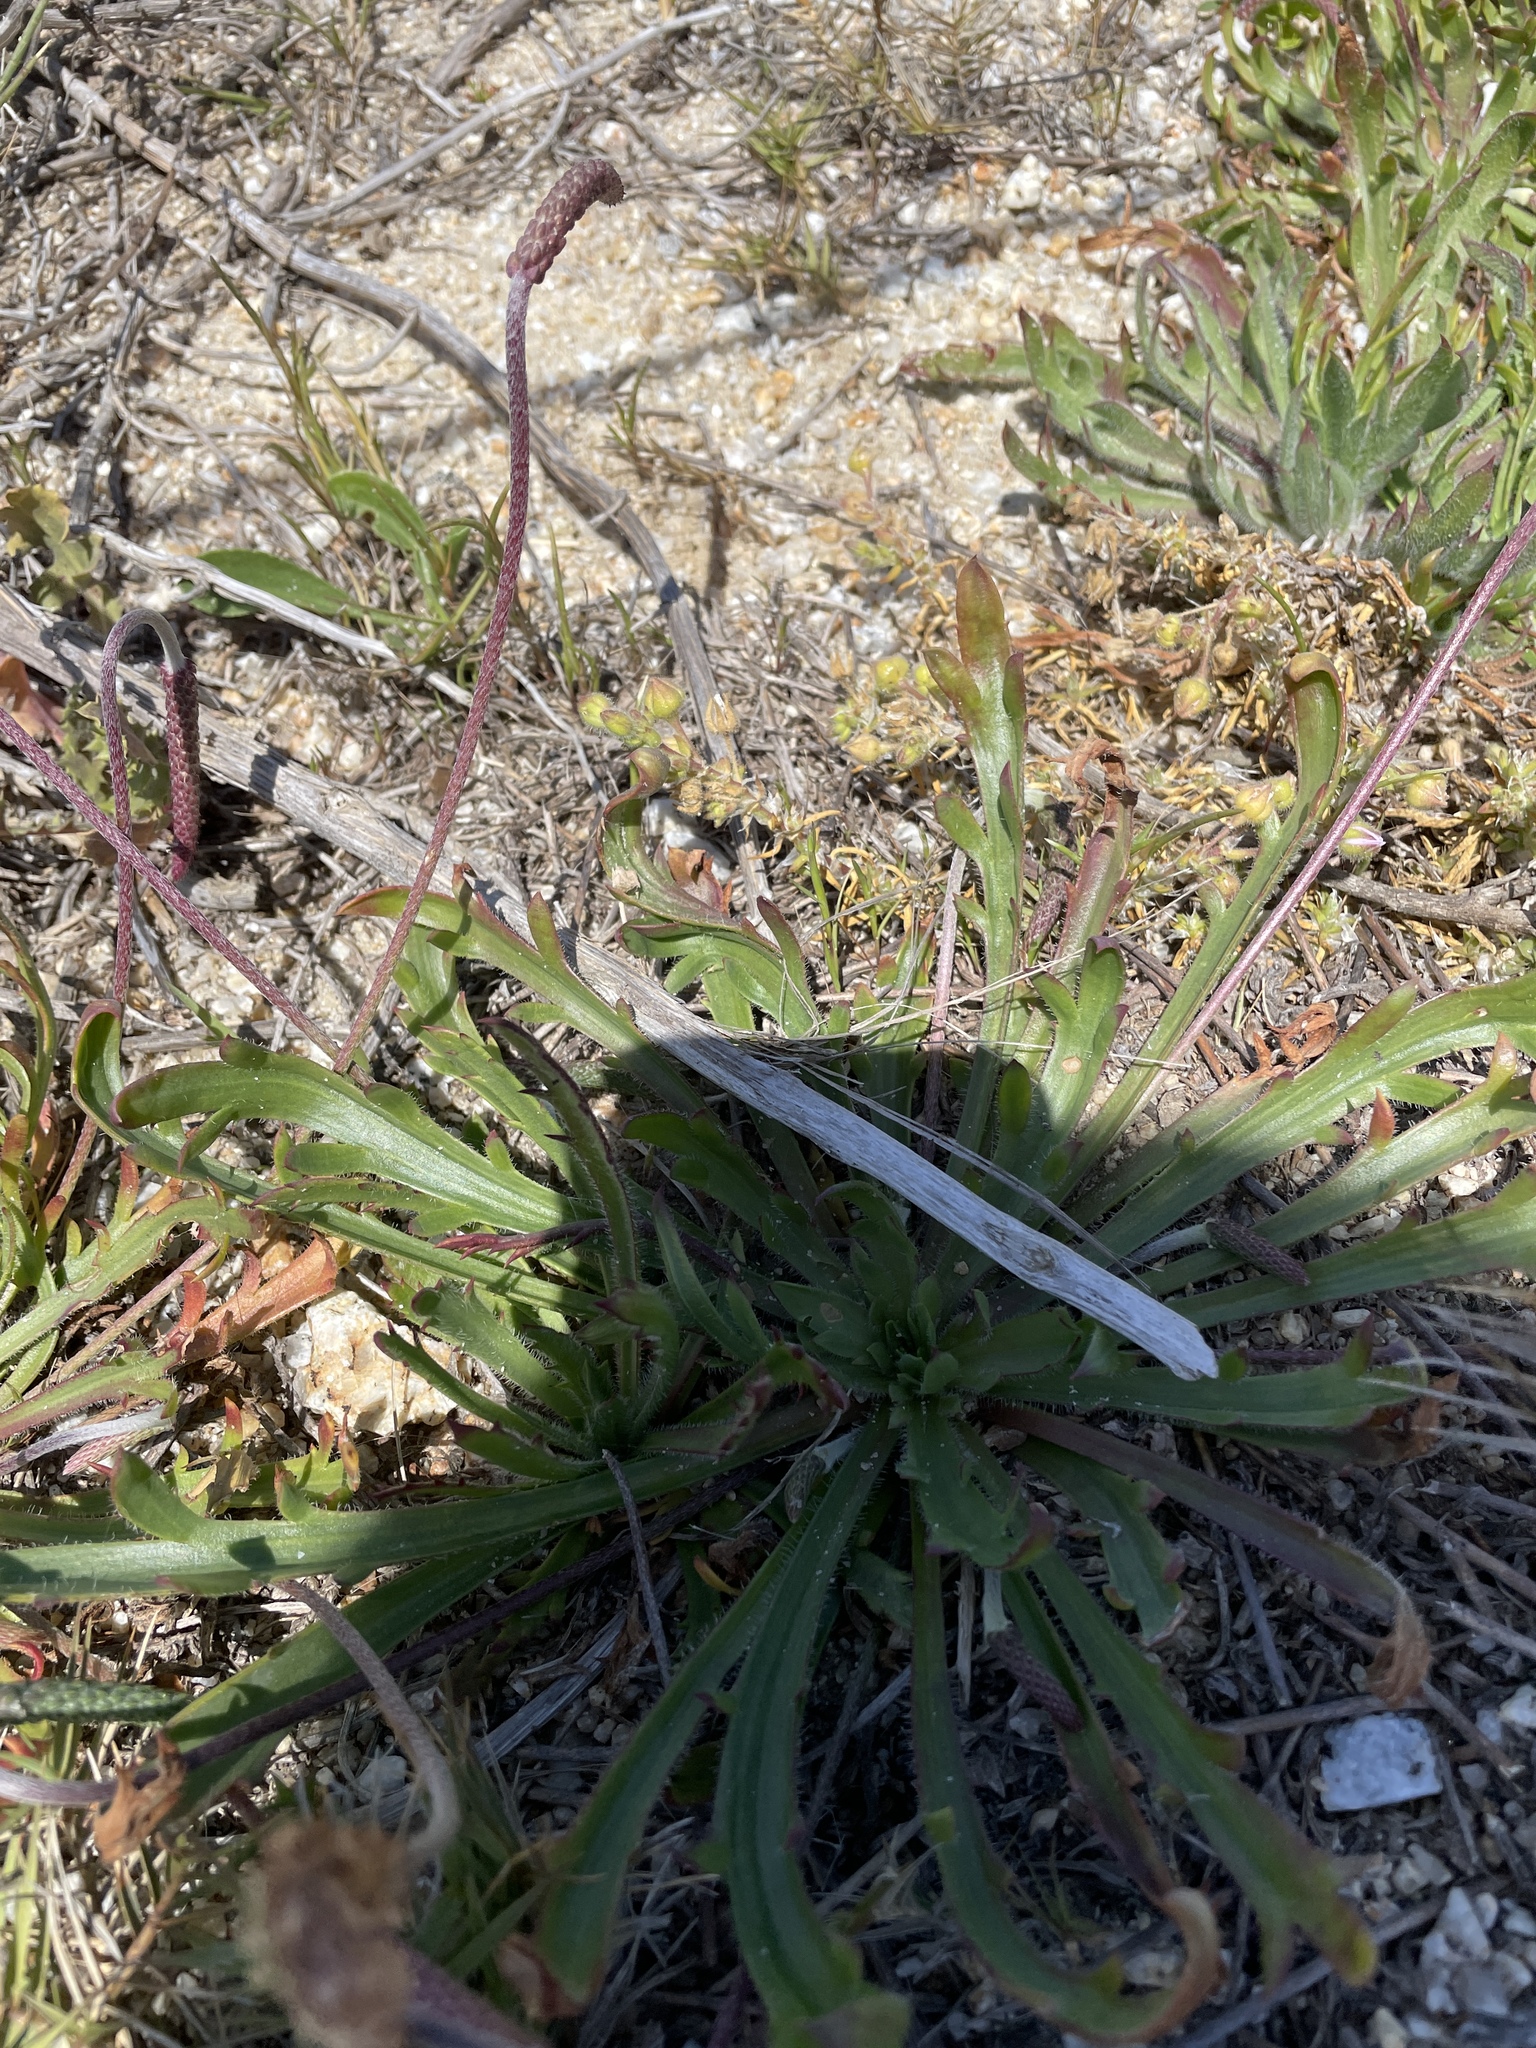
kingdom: Plantae
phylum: Tracheophyta
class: Magnoliopsida
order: Lamiales
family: Plantaginaceae
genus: Plantago
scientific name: Plantago coronopus
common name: Buck's-horn plantain
